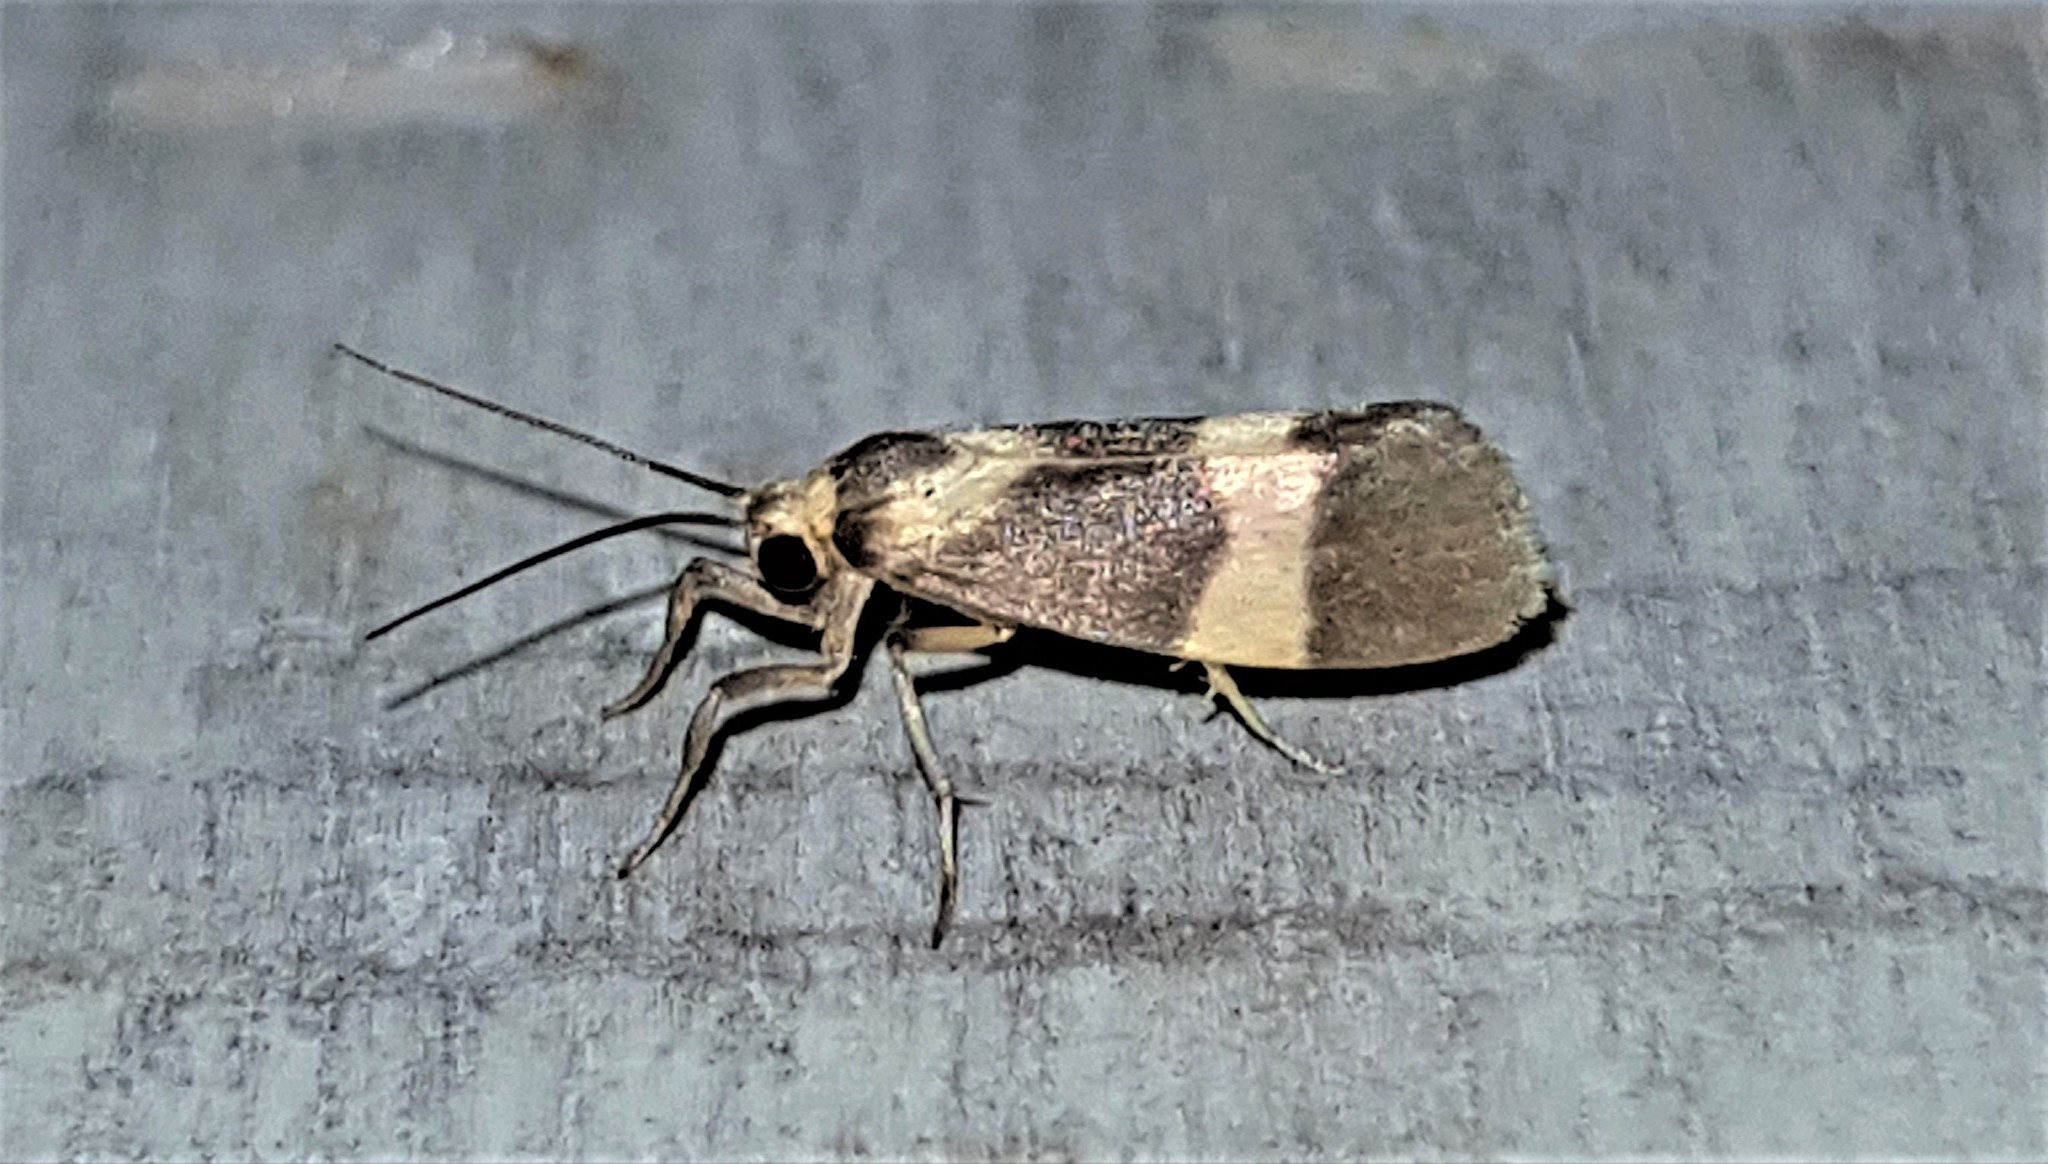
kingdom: Animalia
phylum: Arthropoda
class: Insecta
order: Lepidoptera
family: Erebidae
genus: Cisthene
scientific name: Cisthene abala
